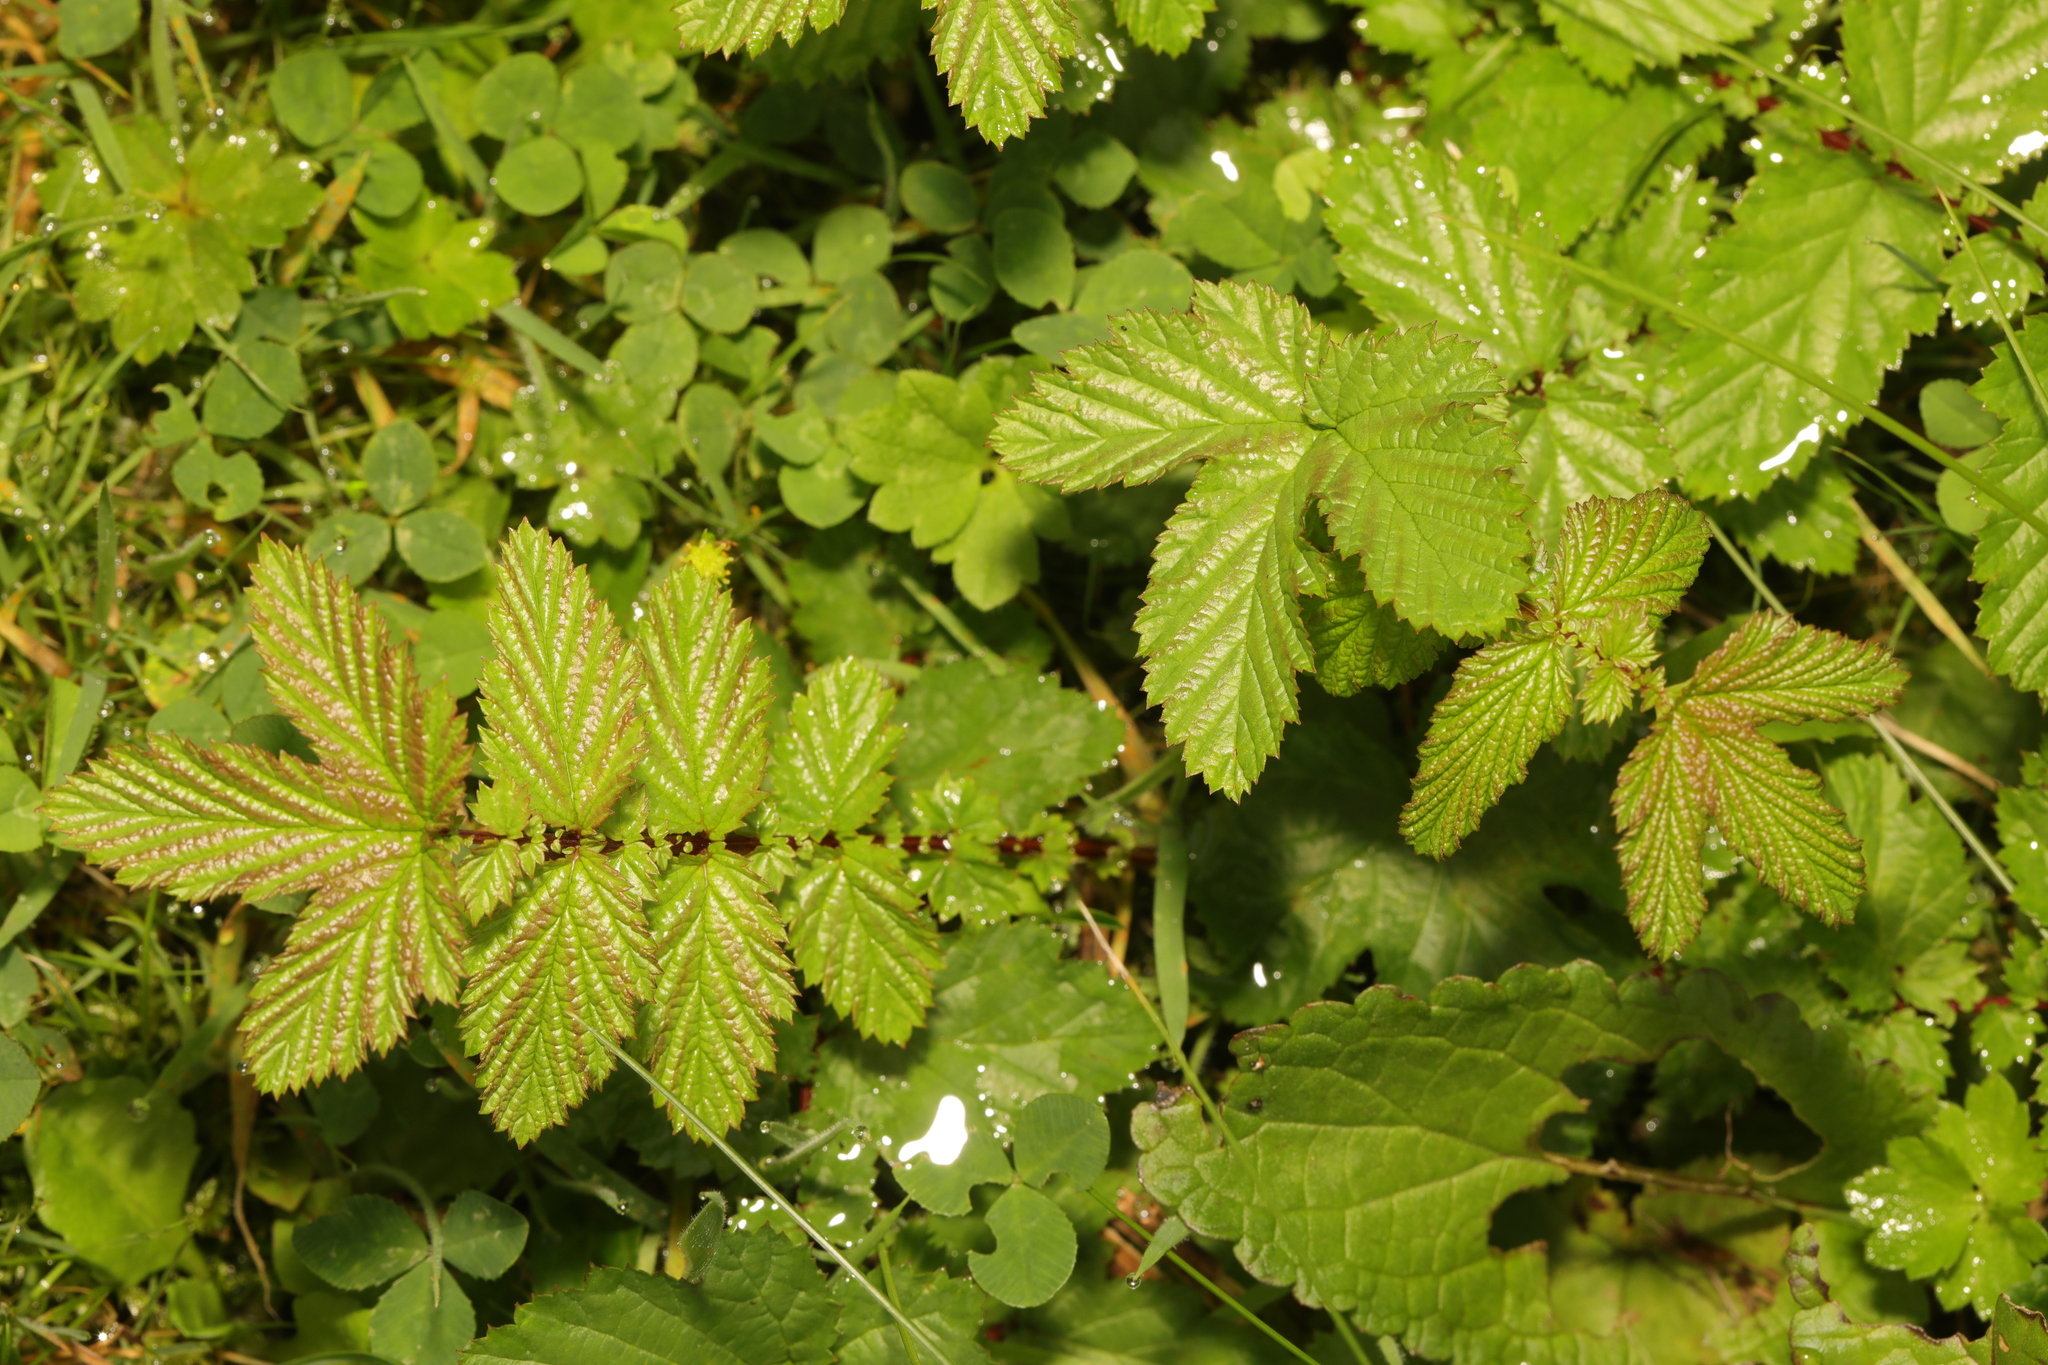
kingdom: Plantae
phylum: Tracheophyta
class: Magnoliopsida
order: Rosales
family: Rosaceae
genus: Filipendula
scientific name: Filipendula ulmaria
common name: Meadowsweet
